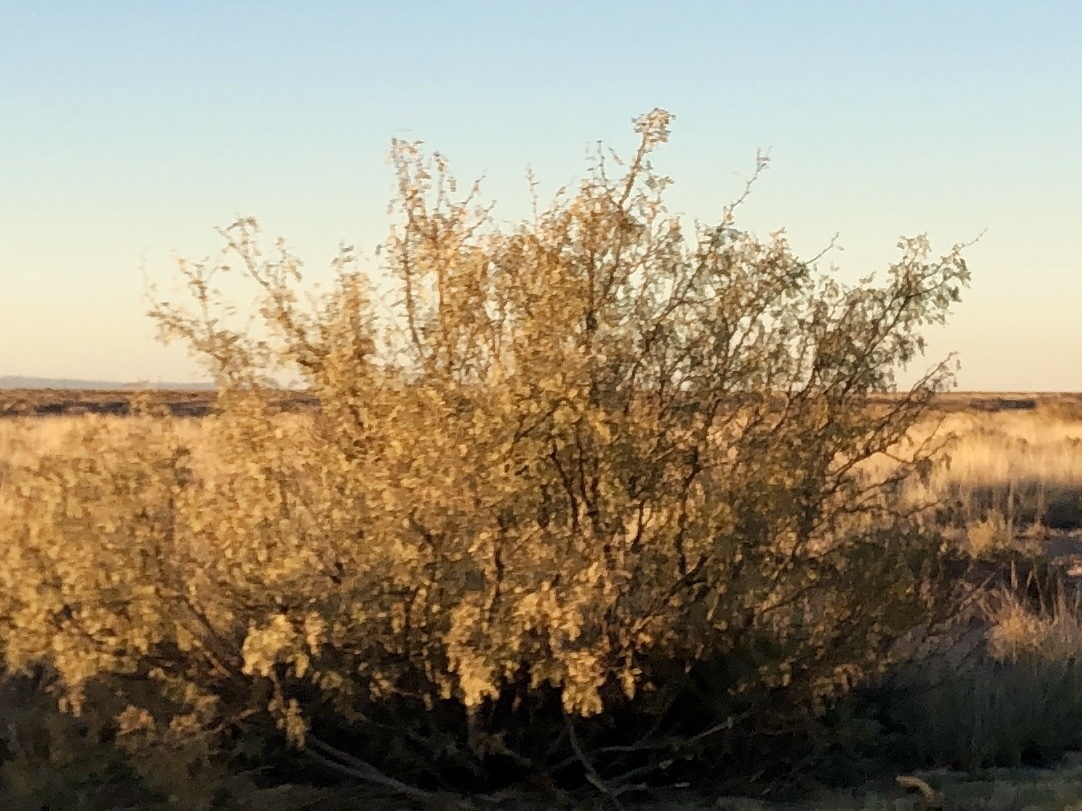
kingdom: Plantae
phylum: Tracheophyta
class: Magnoliopsida
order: Fabales
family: Fabaceae
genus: Prosopis
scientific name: Prosopis glandulosa
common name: Honey mesquite
